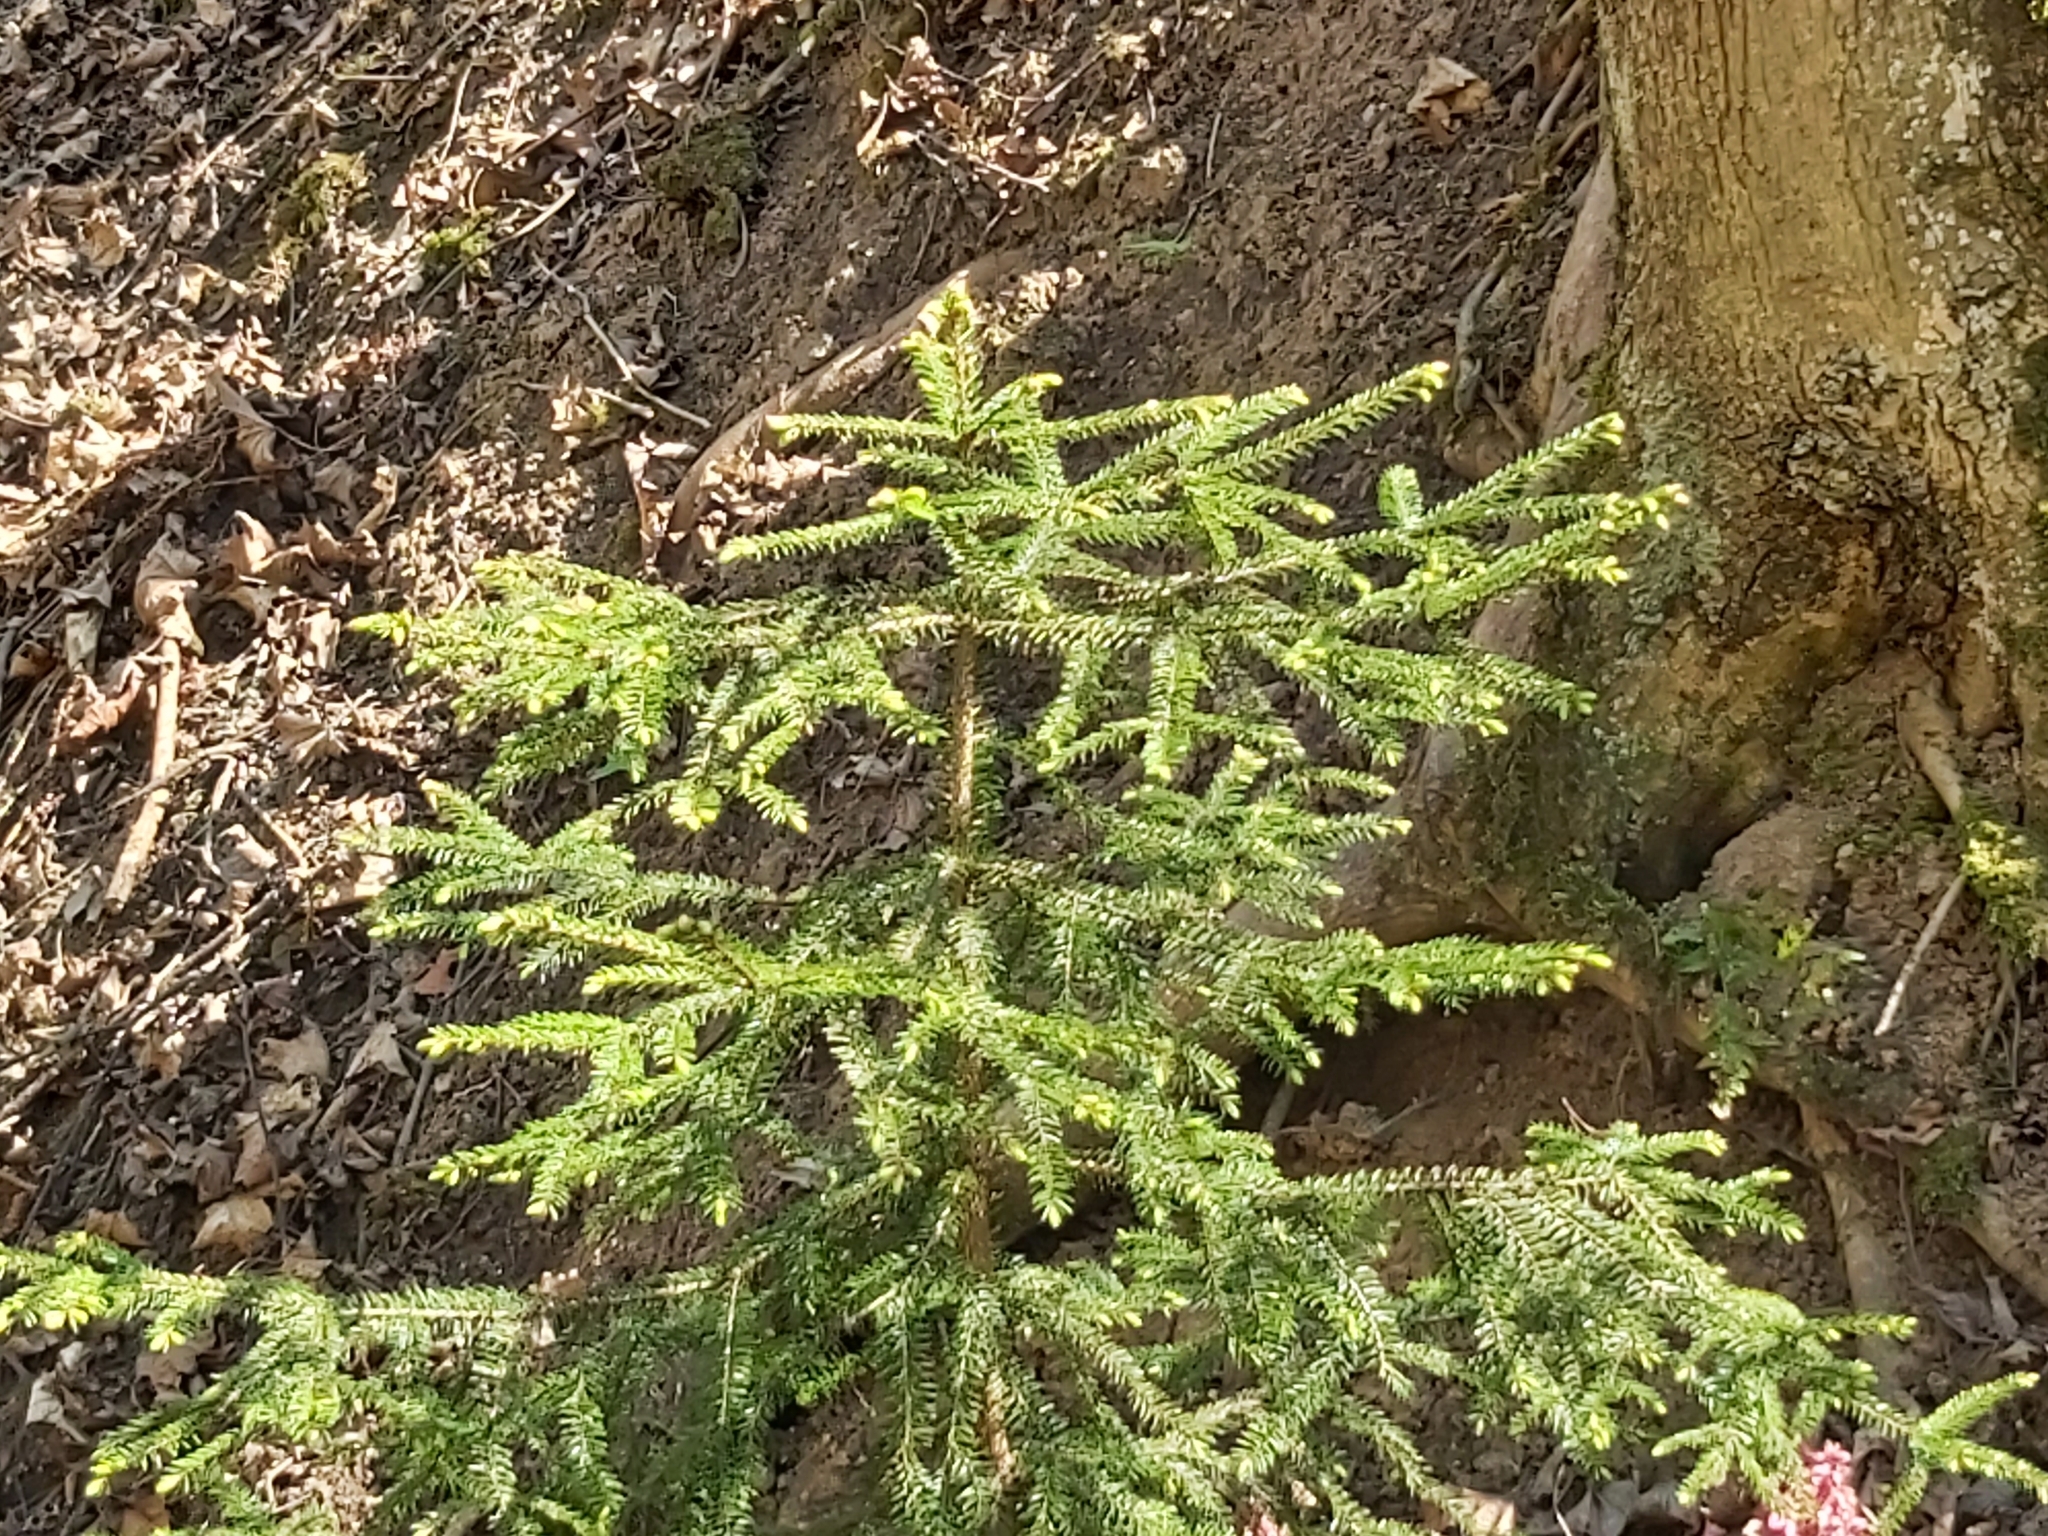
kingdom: Plantae
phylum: Tracheophyta
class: Pinopsida
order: Pinales
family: Pinaceae
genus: Picea
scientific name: Picea abies
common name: Norway spruce
